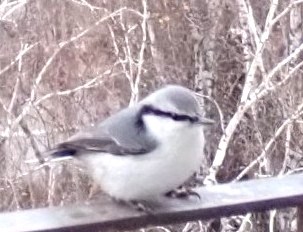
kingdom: Animalia
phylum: Chordata
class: Aves
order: Passeriformes
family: Sittidae
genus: Sitta
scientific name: Sitta europaea
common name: Eurasian nuthatch
